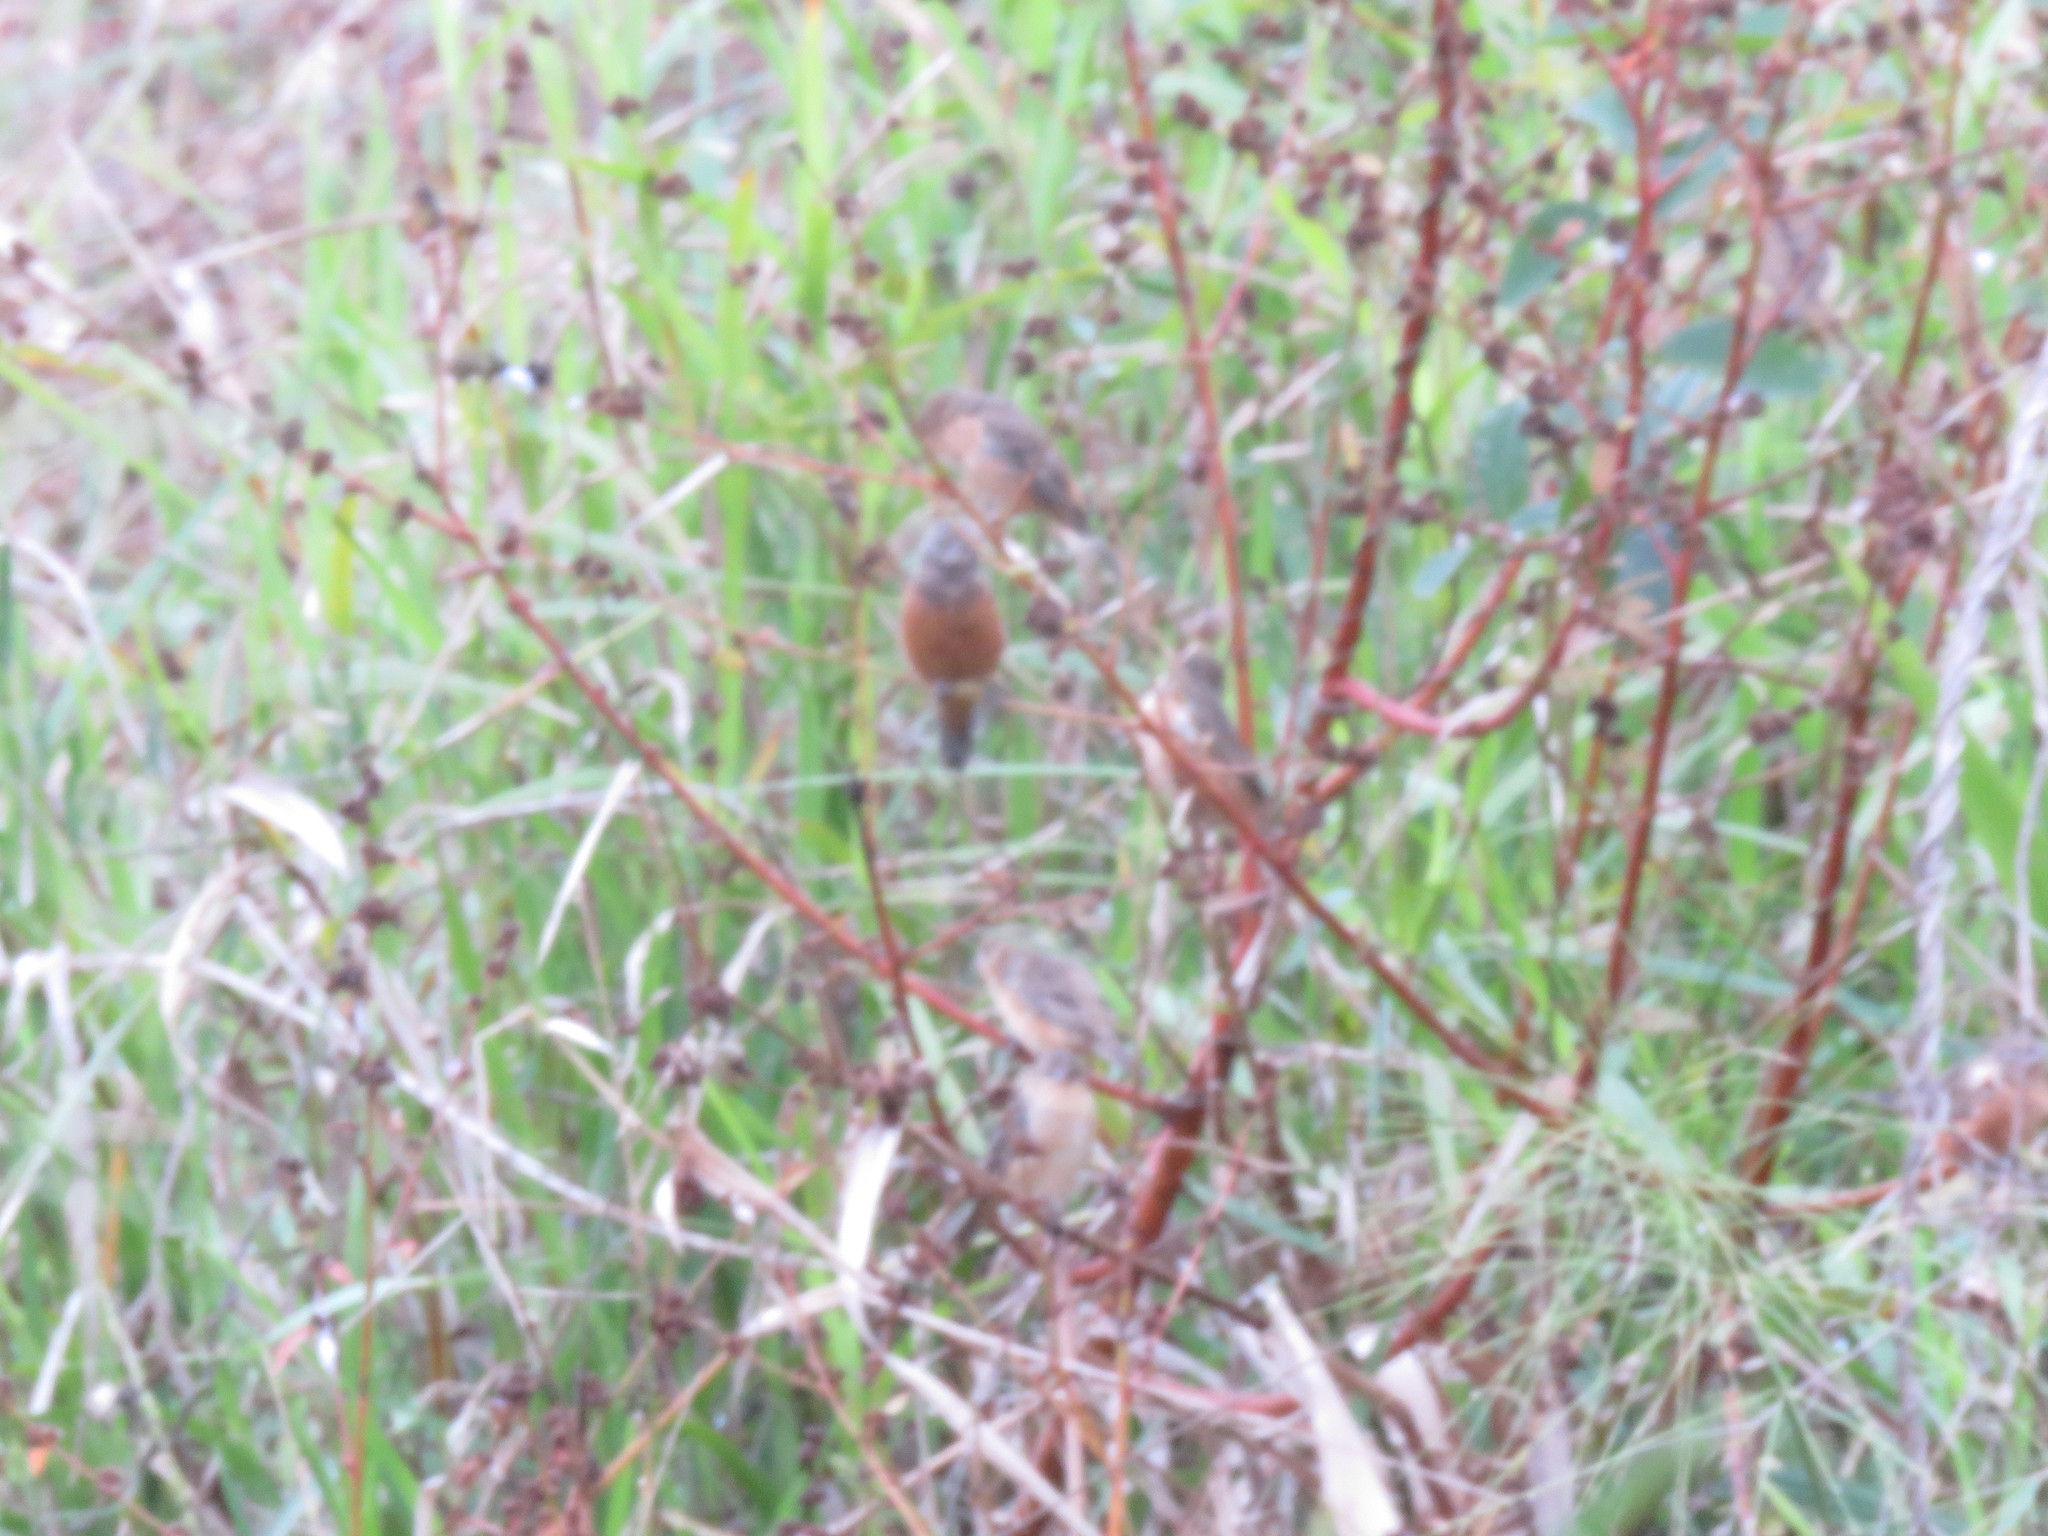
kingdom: Animalia
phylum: Chordata
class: Aves
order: Passeriformes
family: Thraupidae
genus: Sporophila
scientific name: Sporophila ruficollis
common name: Dark-throated seedeater
